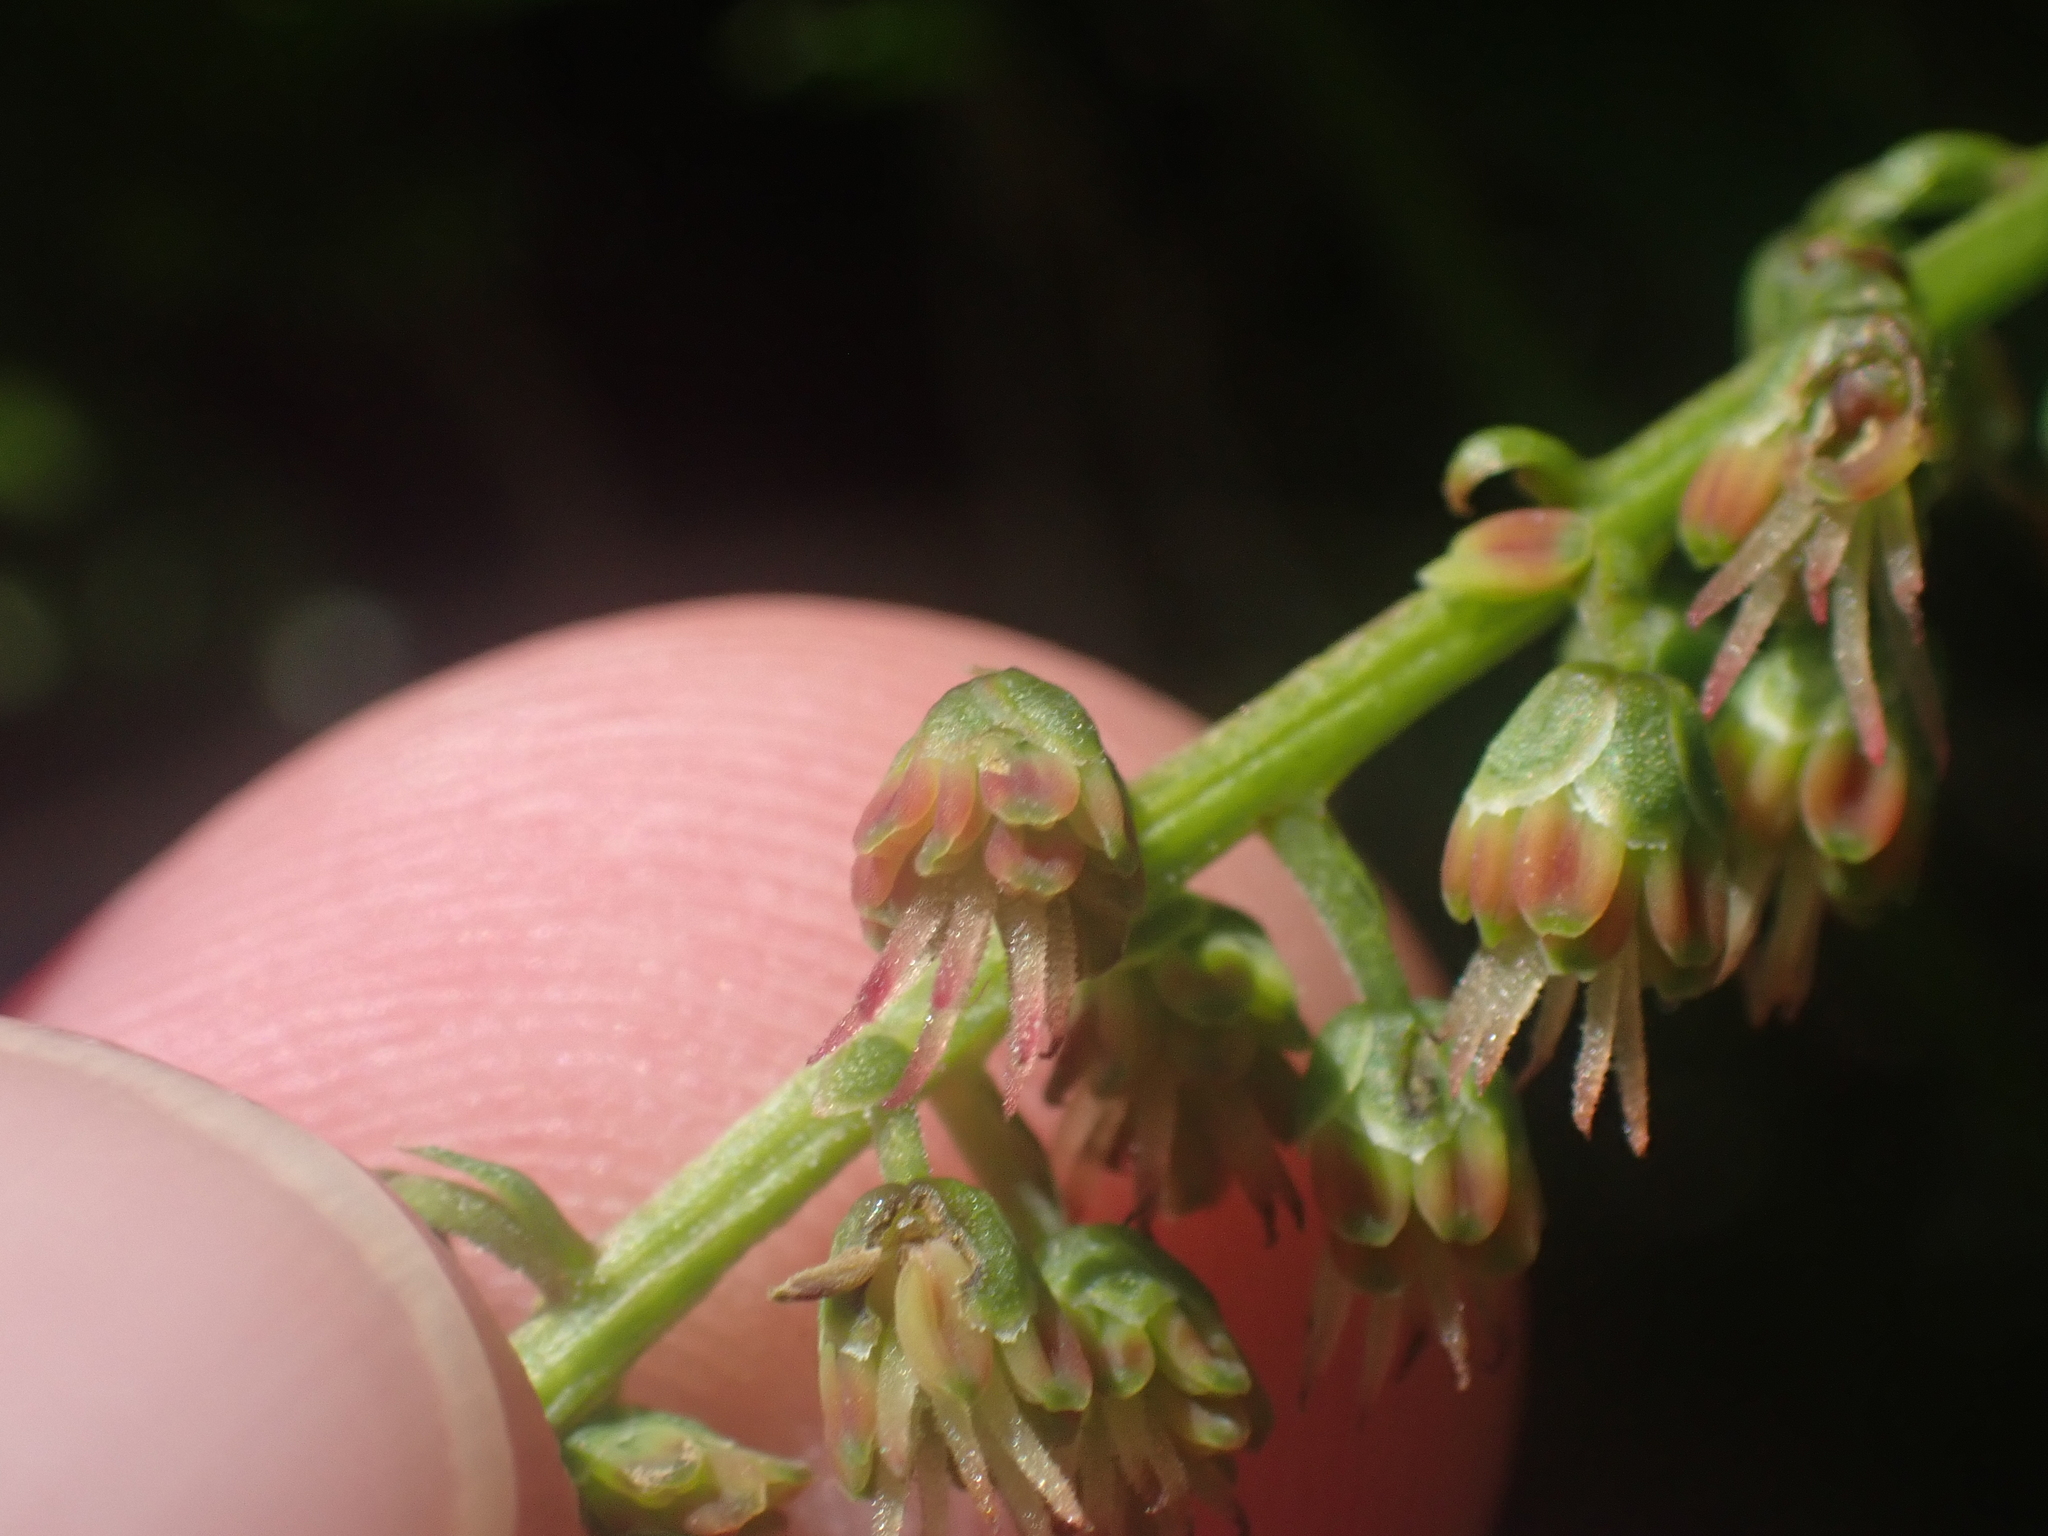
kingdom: Plantae
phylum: Tracheophyta
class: Magnoliopsida
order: Cucurbitales
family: Coriariaceae
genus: Coriaria
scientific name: Coriaria sarmentosa
